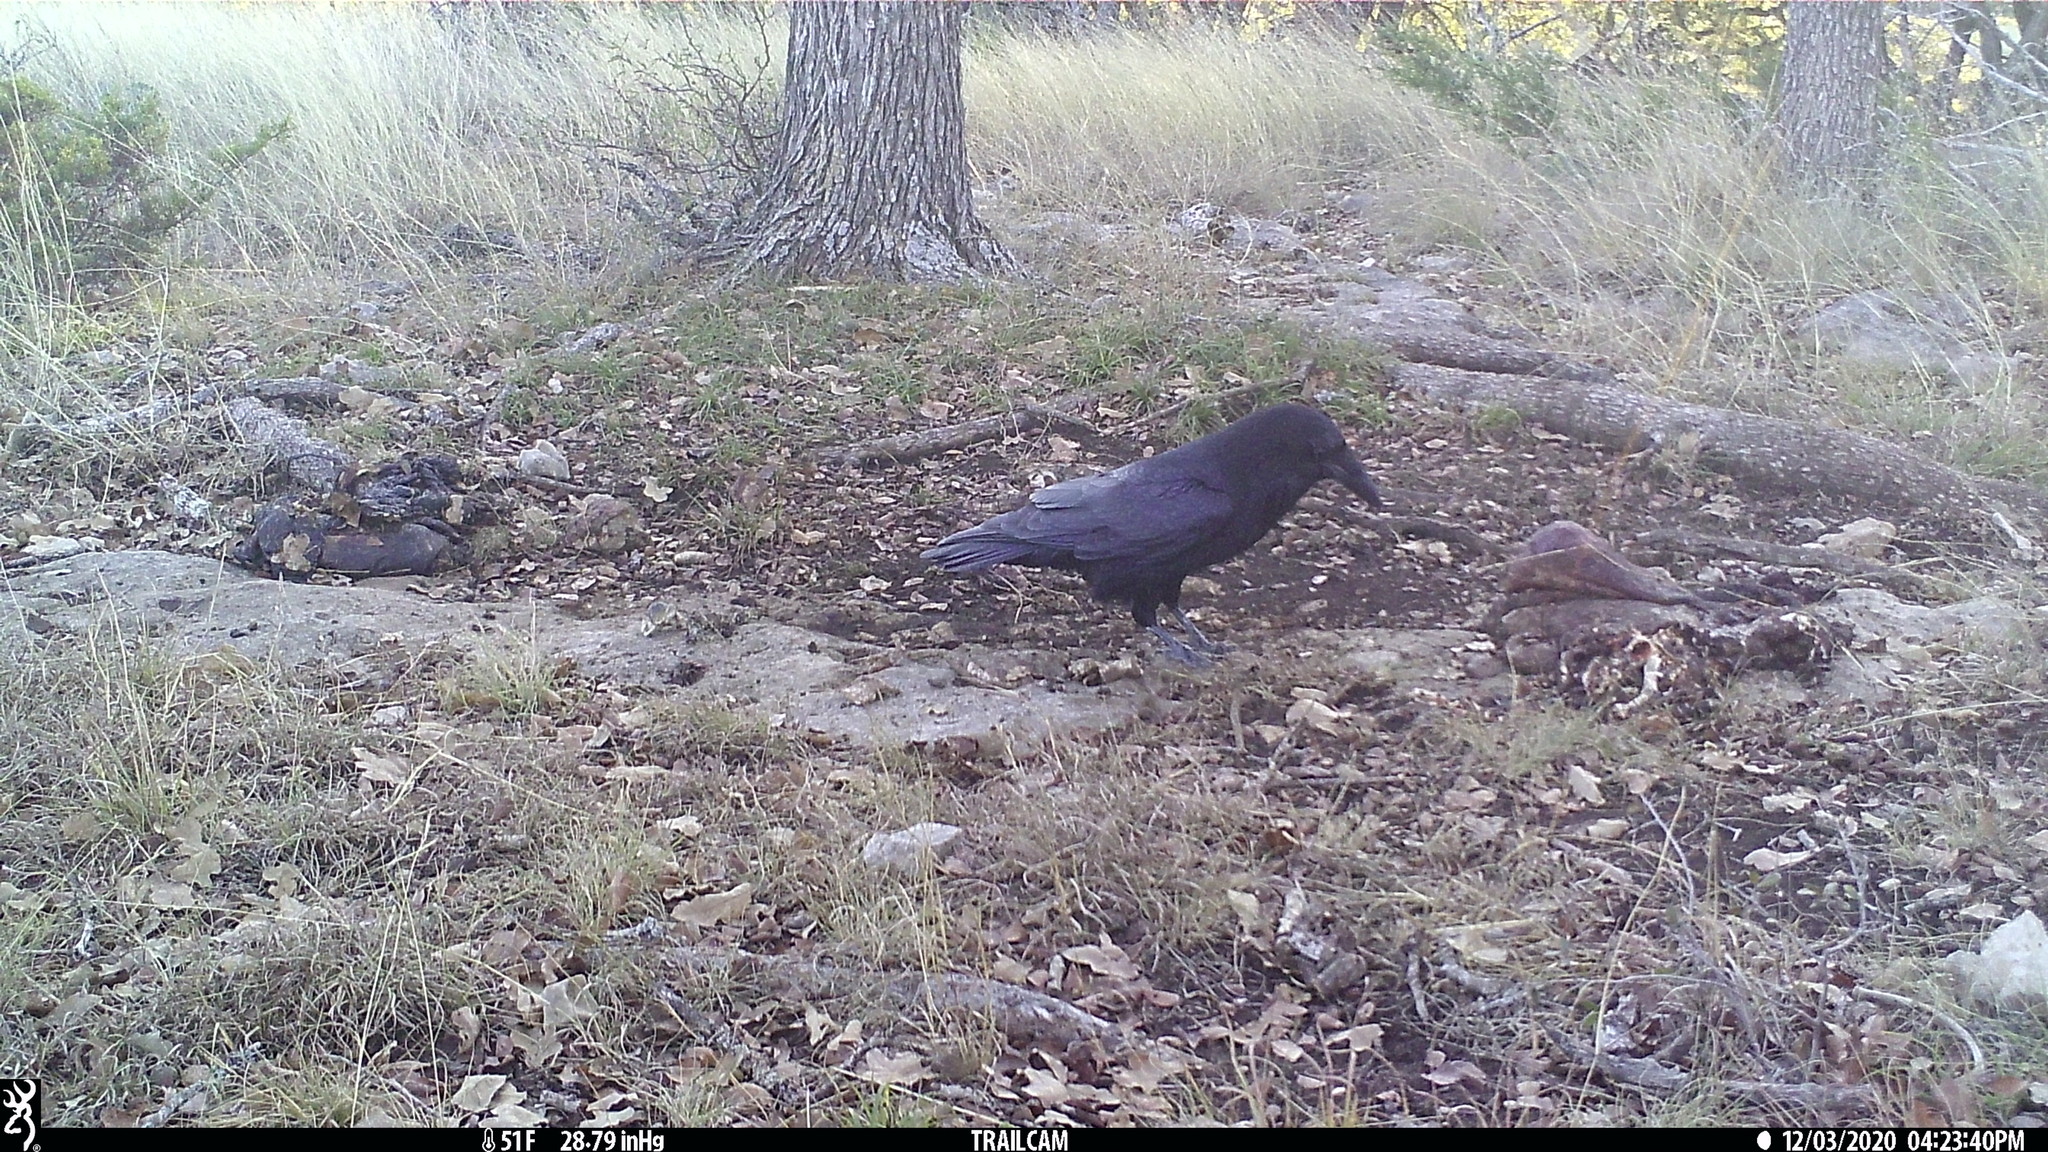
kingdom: Animalia
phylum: Chordata
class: Aves
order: Passeriformes
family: Corvidae
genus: Corvus
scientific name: Corvus corax
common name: Common raven
